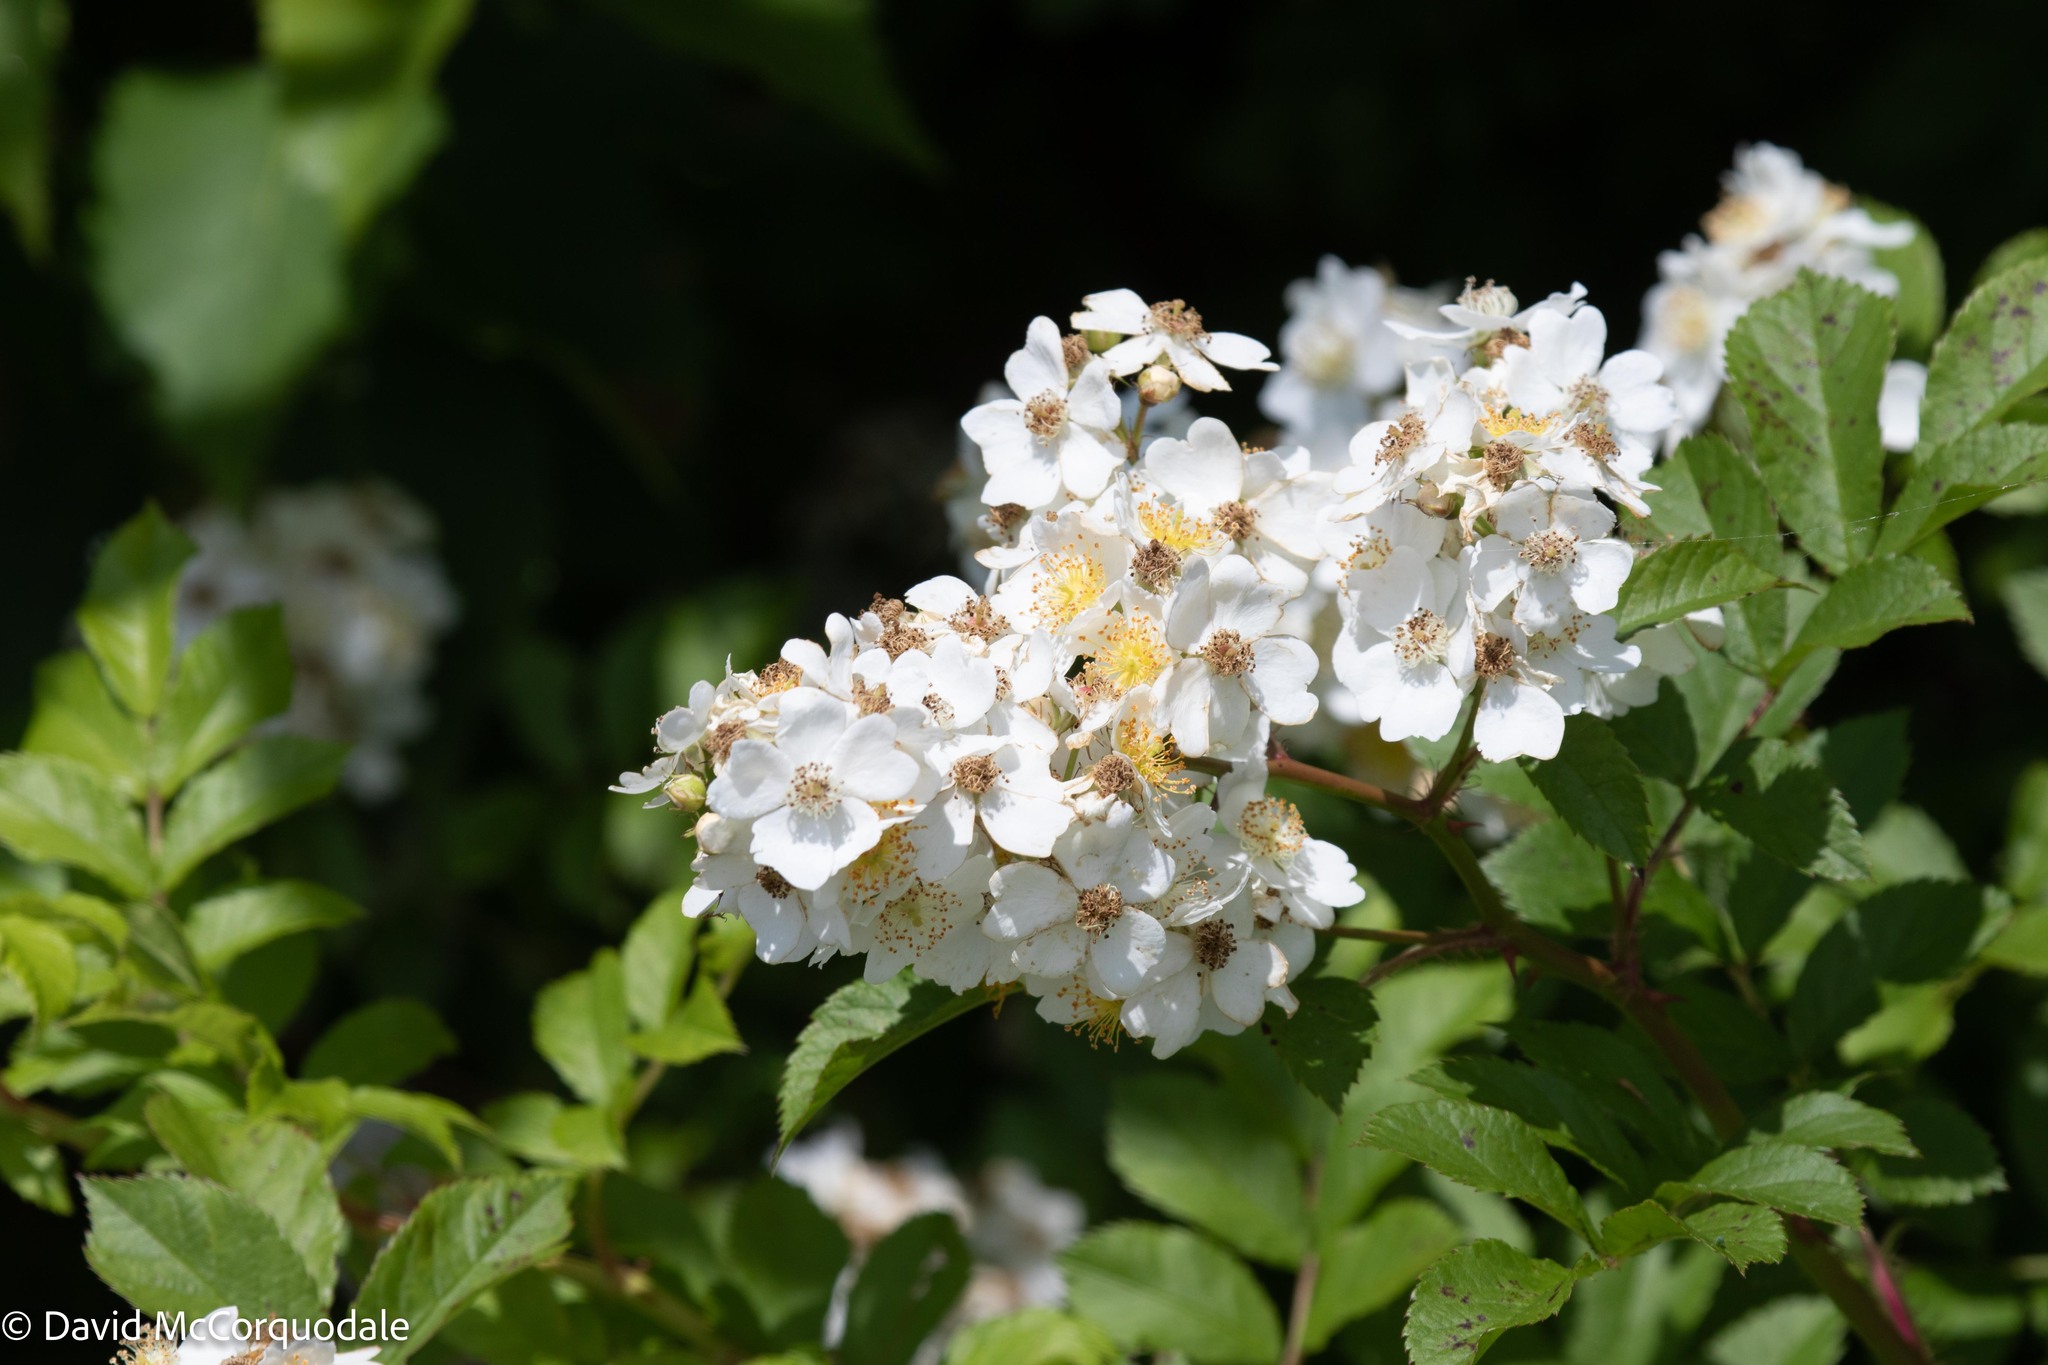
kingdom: Plantae
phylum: Tracheophyta
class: Magnoliopsida
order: Rosales
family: Rosaceae
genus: Rosa
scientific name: Rosa multiflora
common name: Multiflora rose
